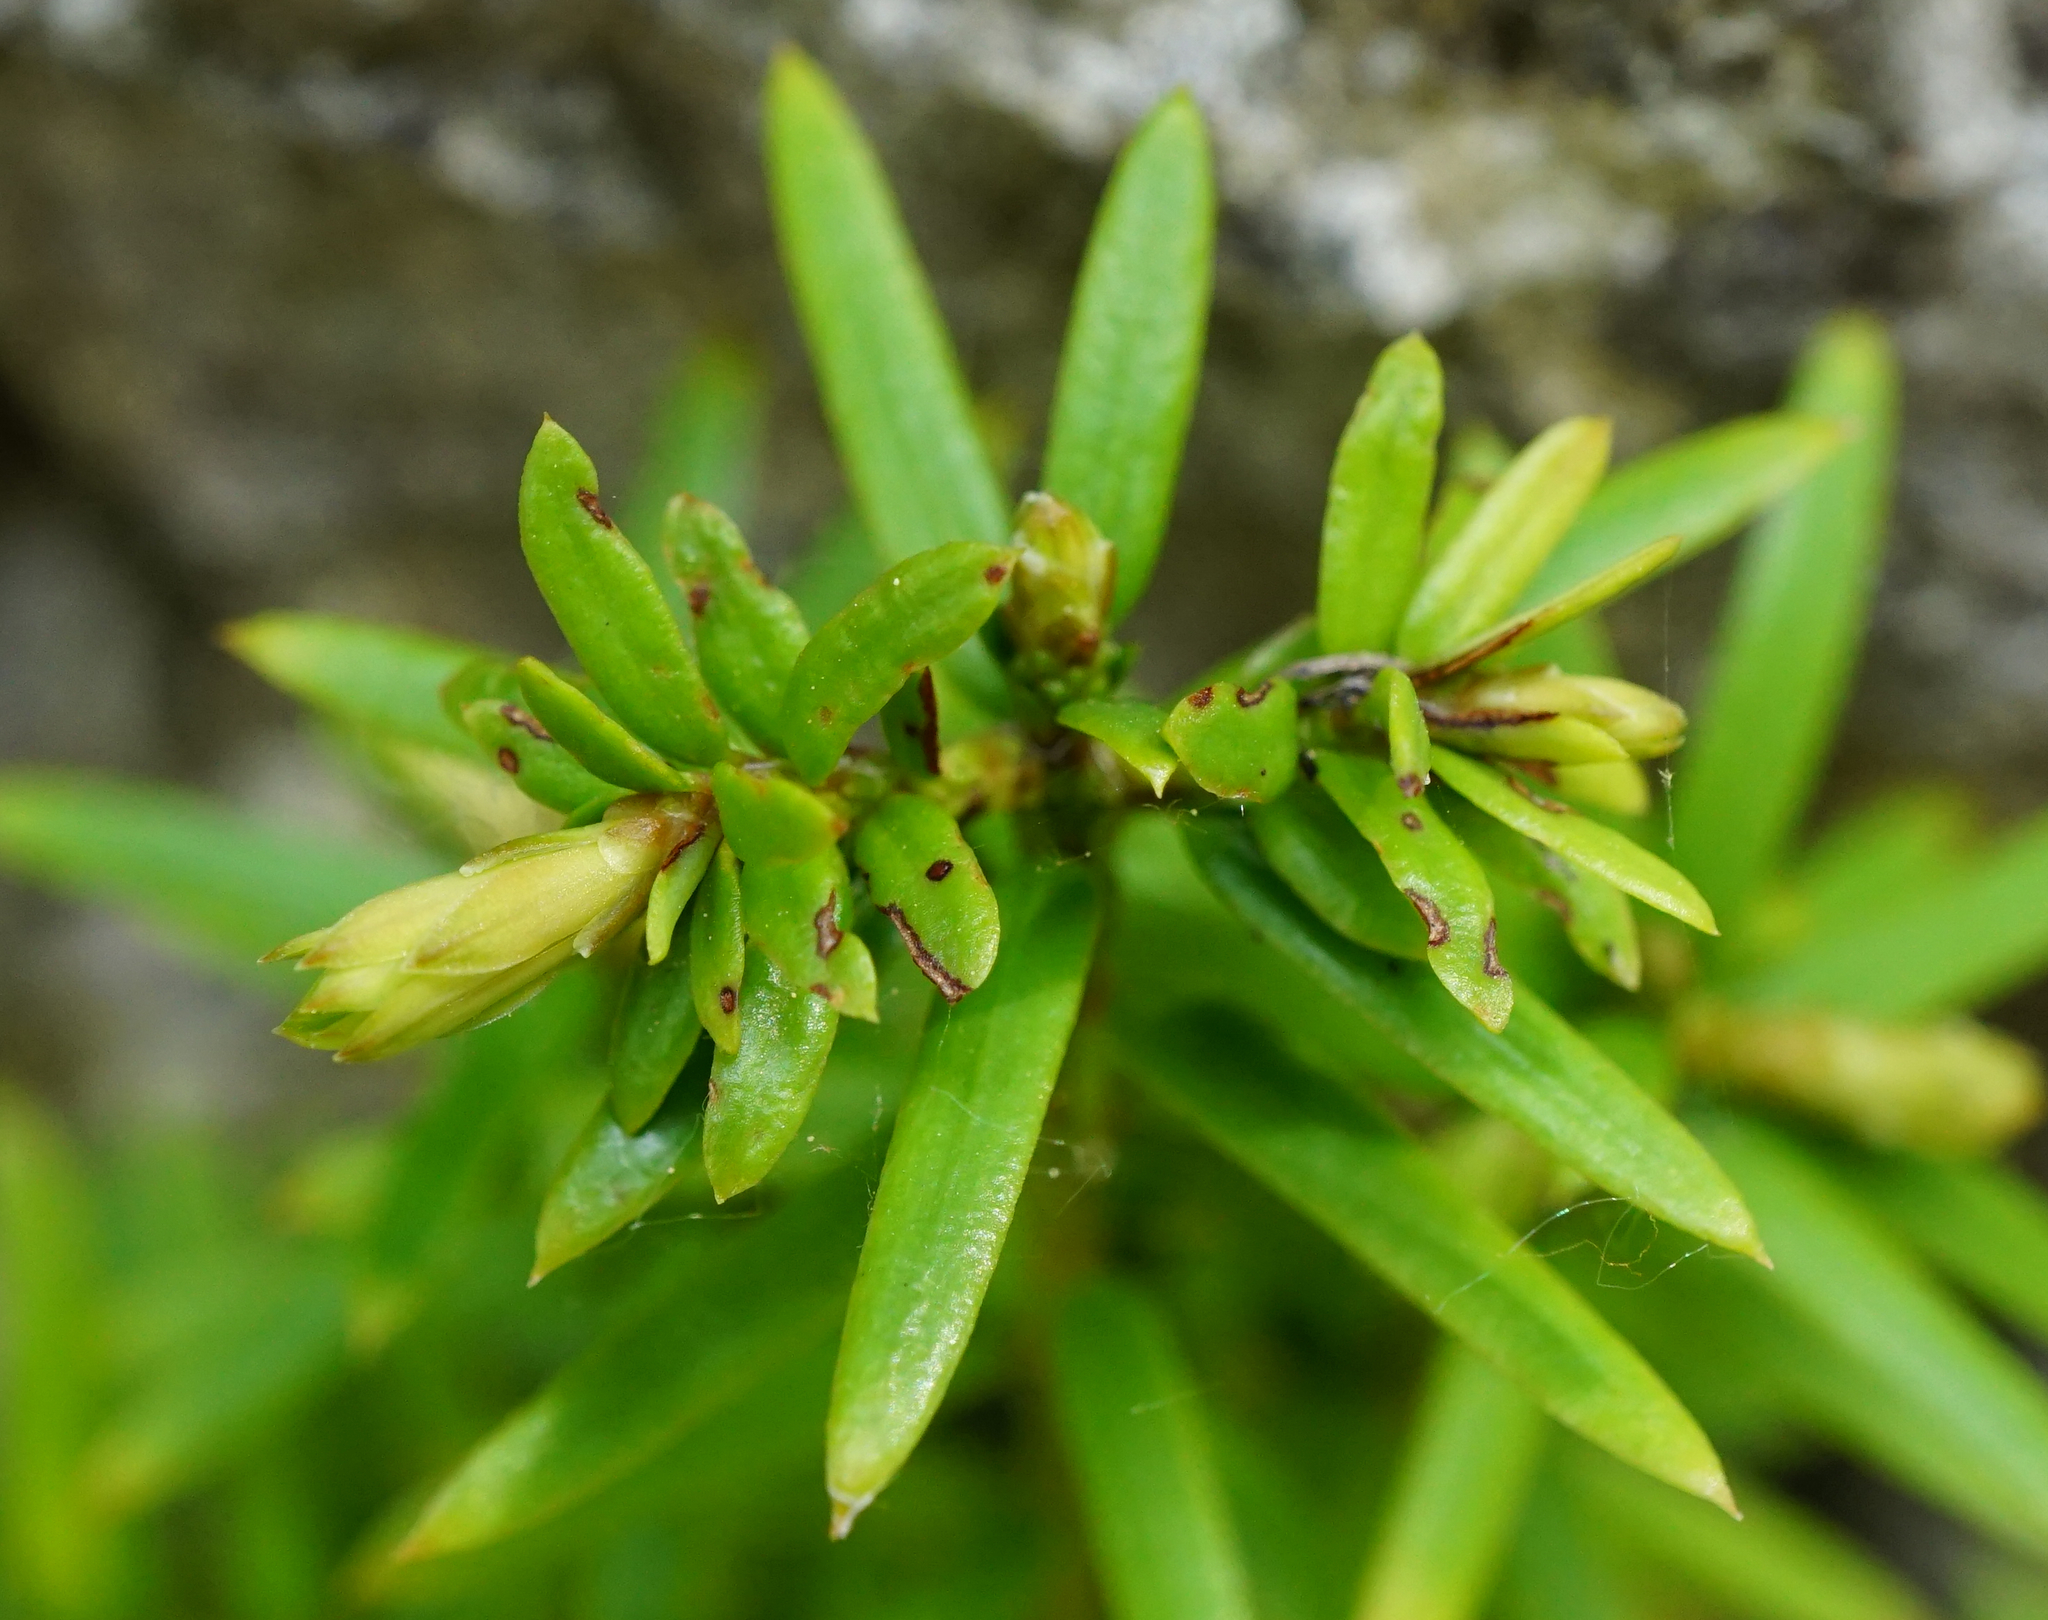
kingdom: Plantae
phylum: Tracheophyta
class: Pinopsida
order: Pinales
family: Taxaceae
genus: Taxus
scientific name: Taxus media
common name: Hybrid yew
